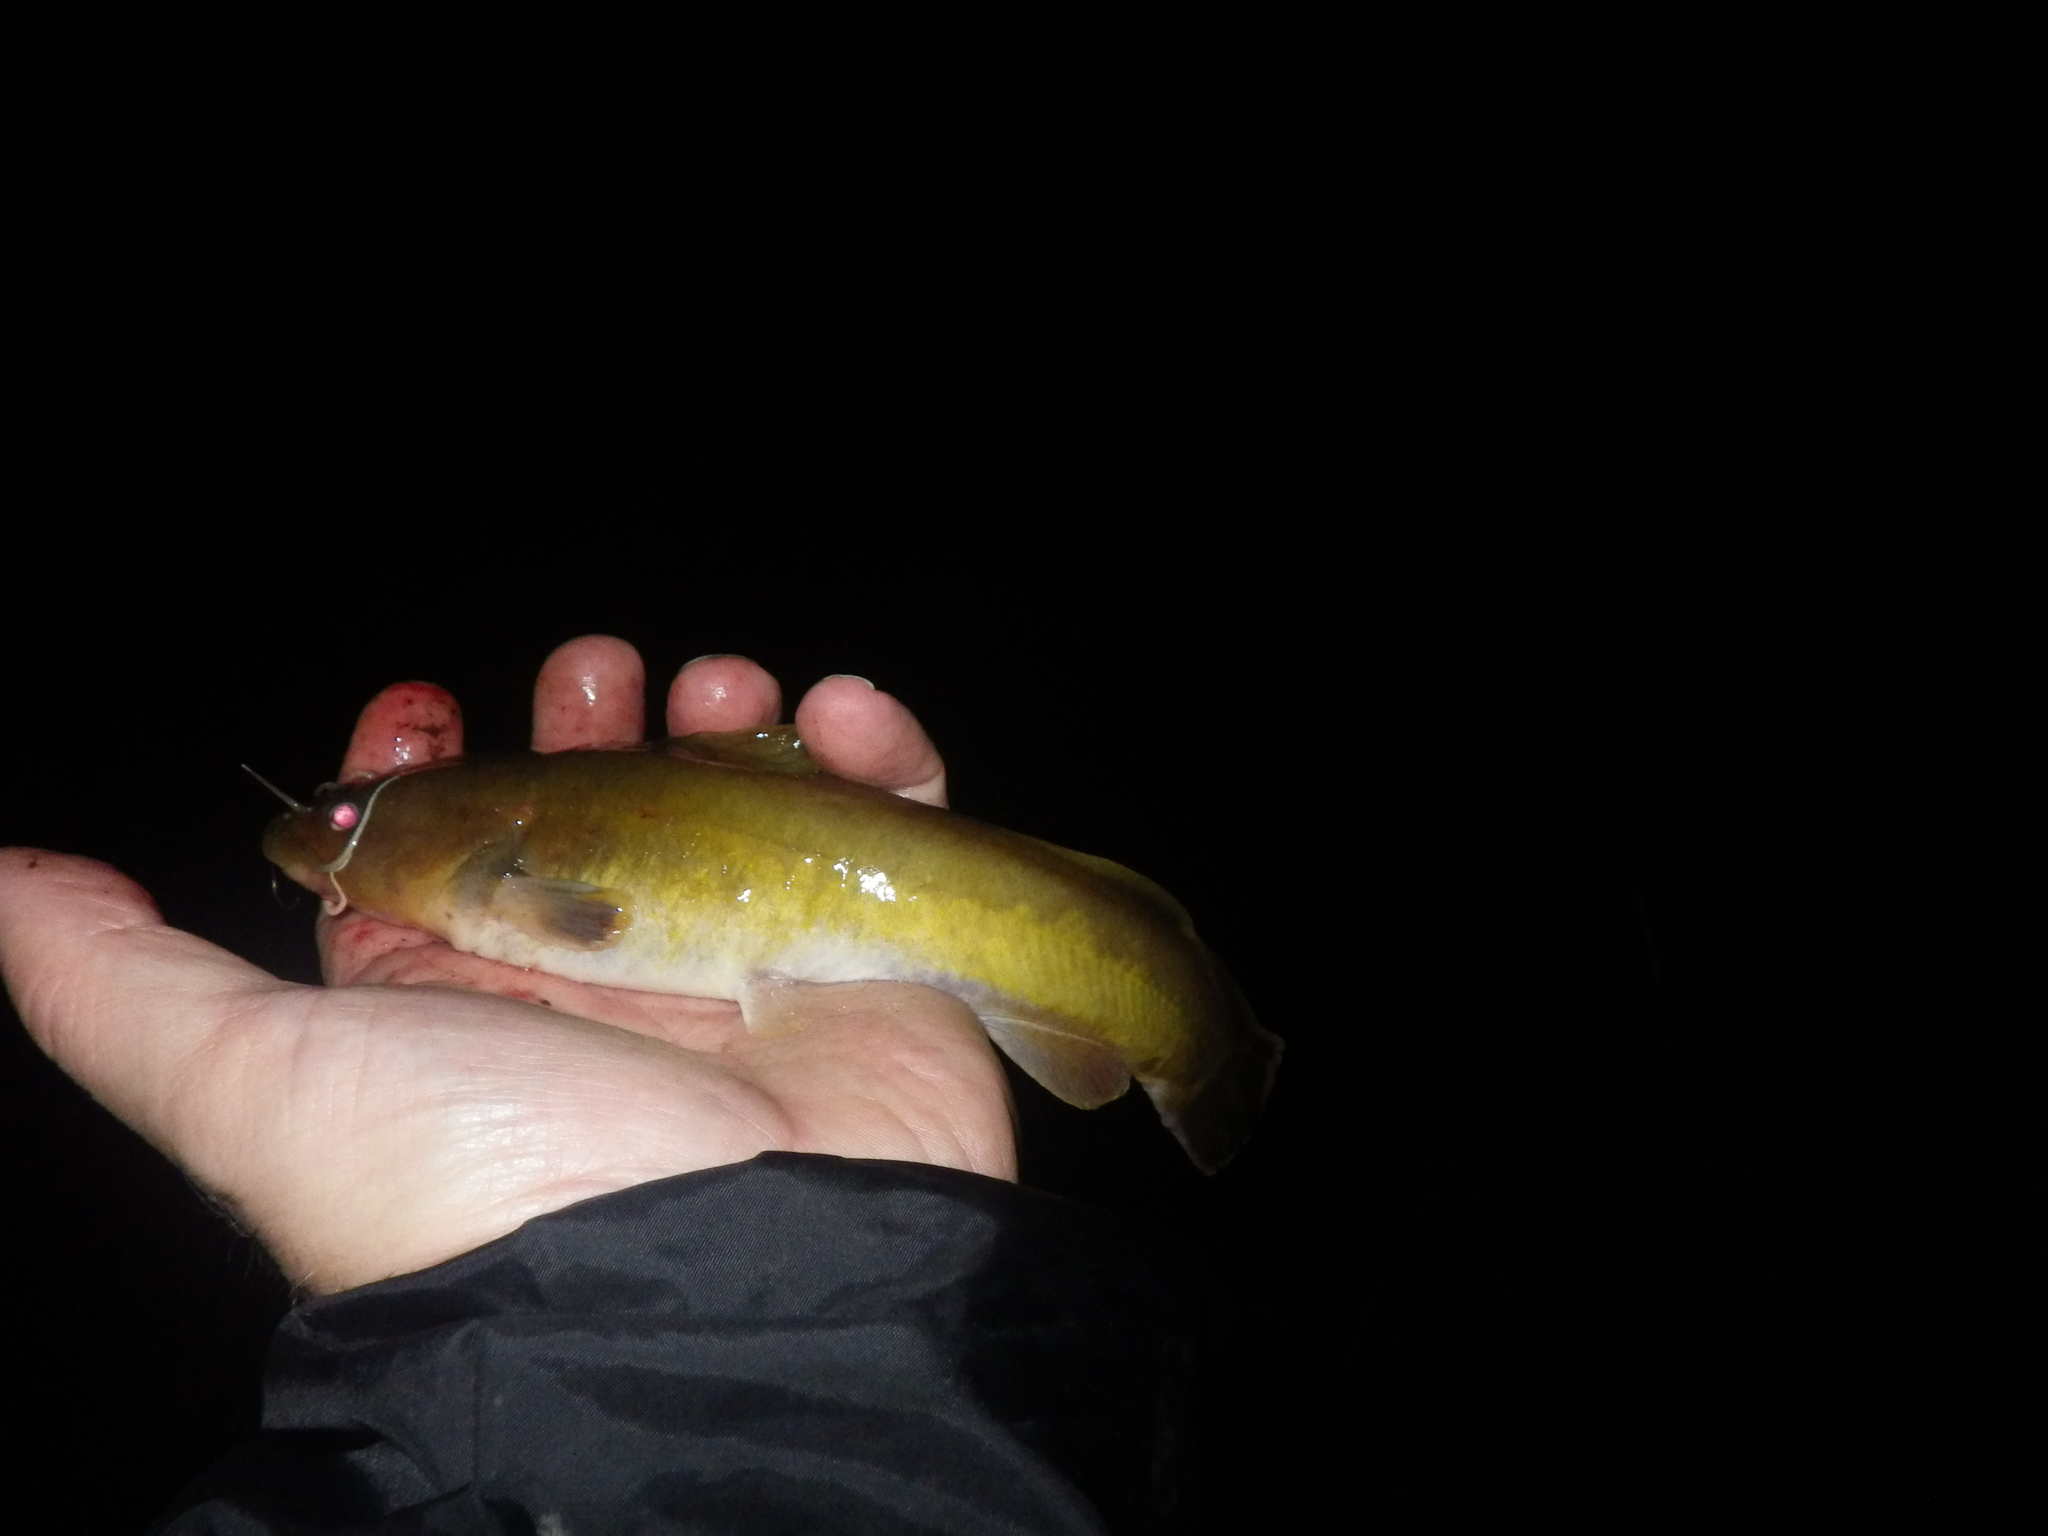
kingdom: Animalia
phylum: Chordata
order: Siluriformes
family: Ictaluridae
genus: Noturus
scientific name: Noturus flavus
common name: Stonecat
